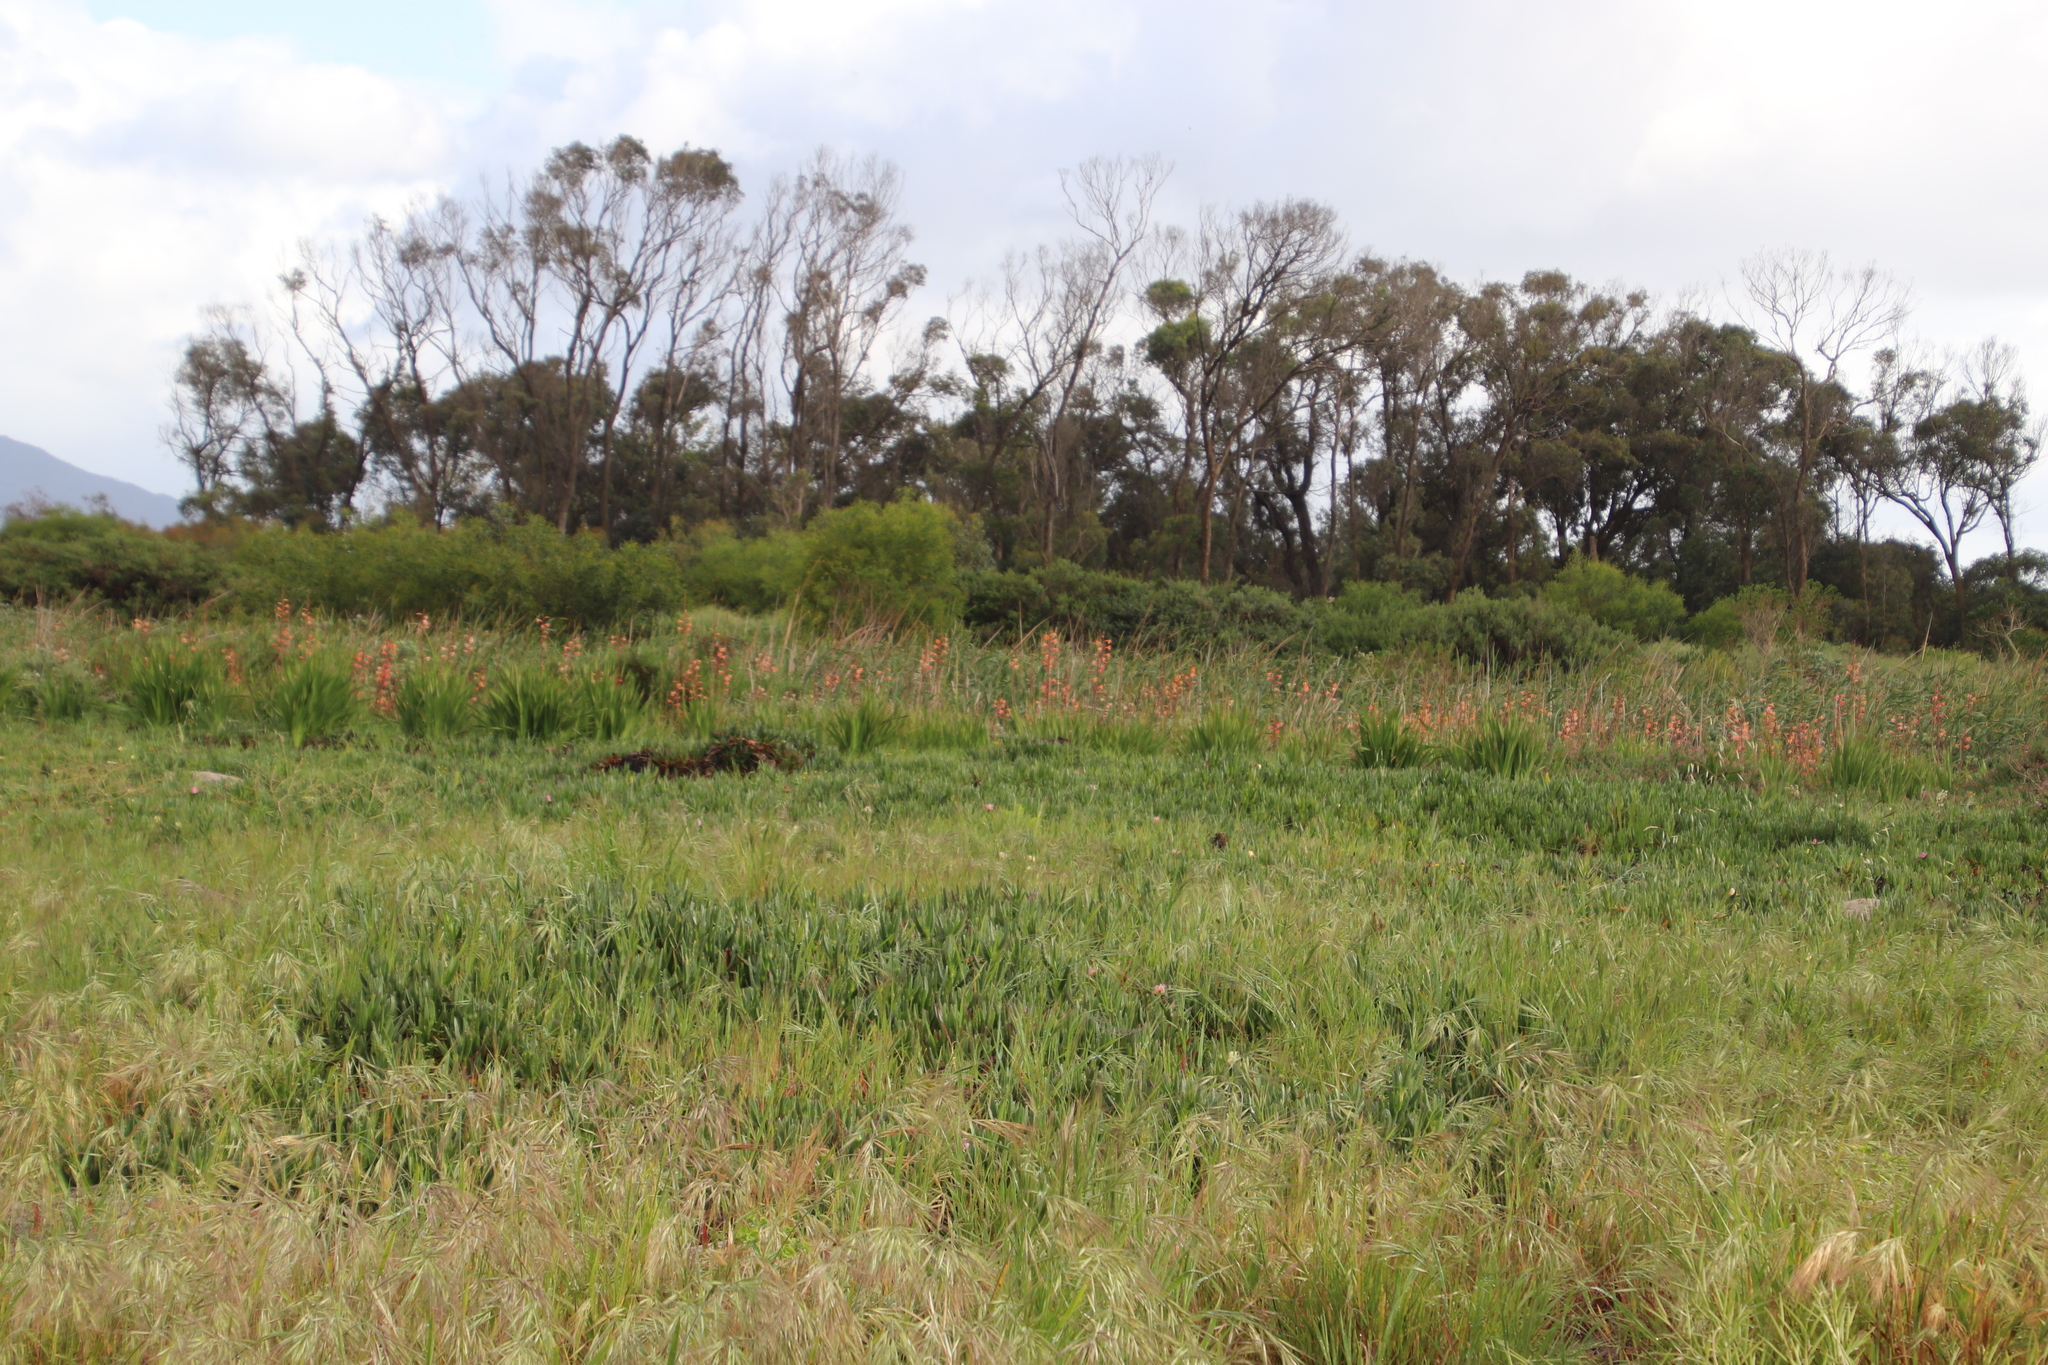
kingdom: Plantae
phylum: Tracheophyta
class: Liliopsida
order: Asparagales
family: Iridaceae
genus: Watsonia
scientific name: Watsonia meriana
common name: Bulbil bugle-lily
